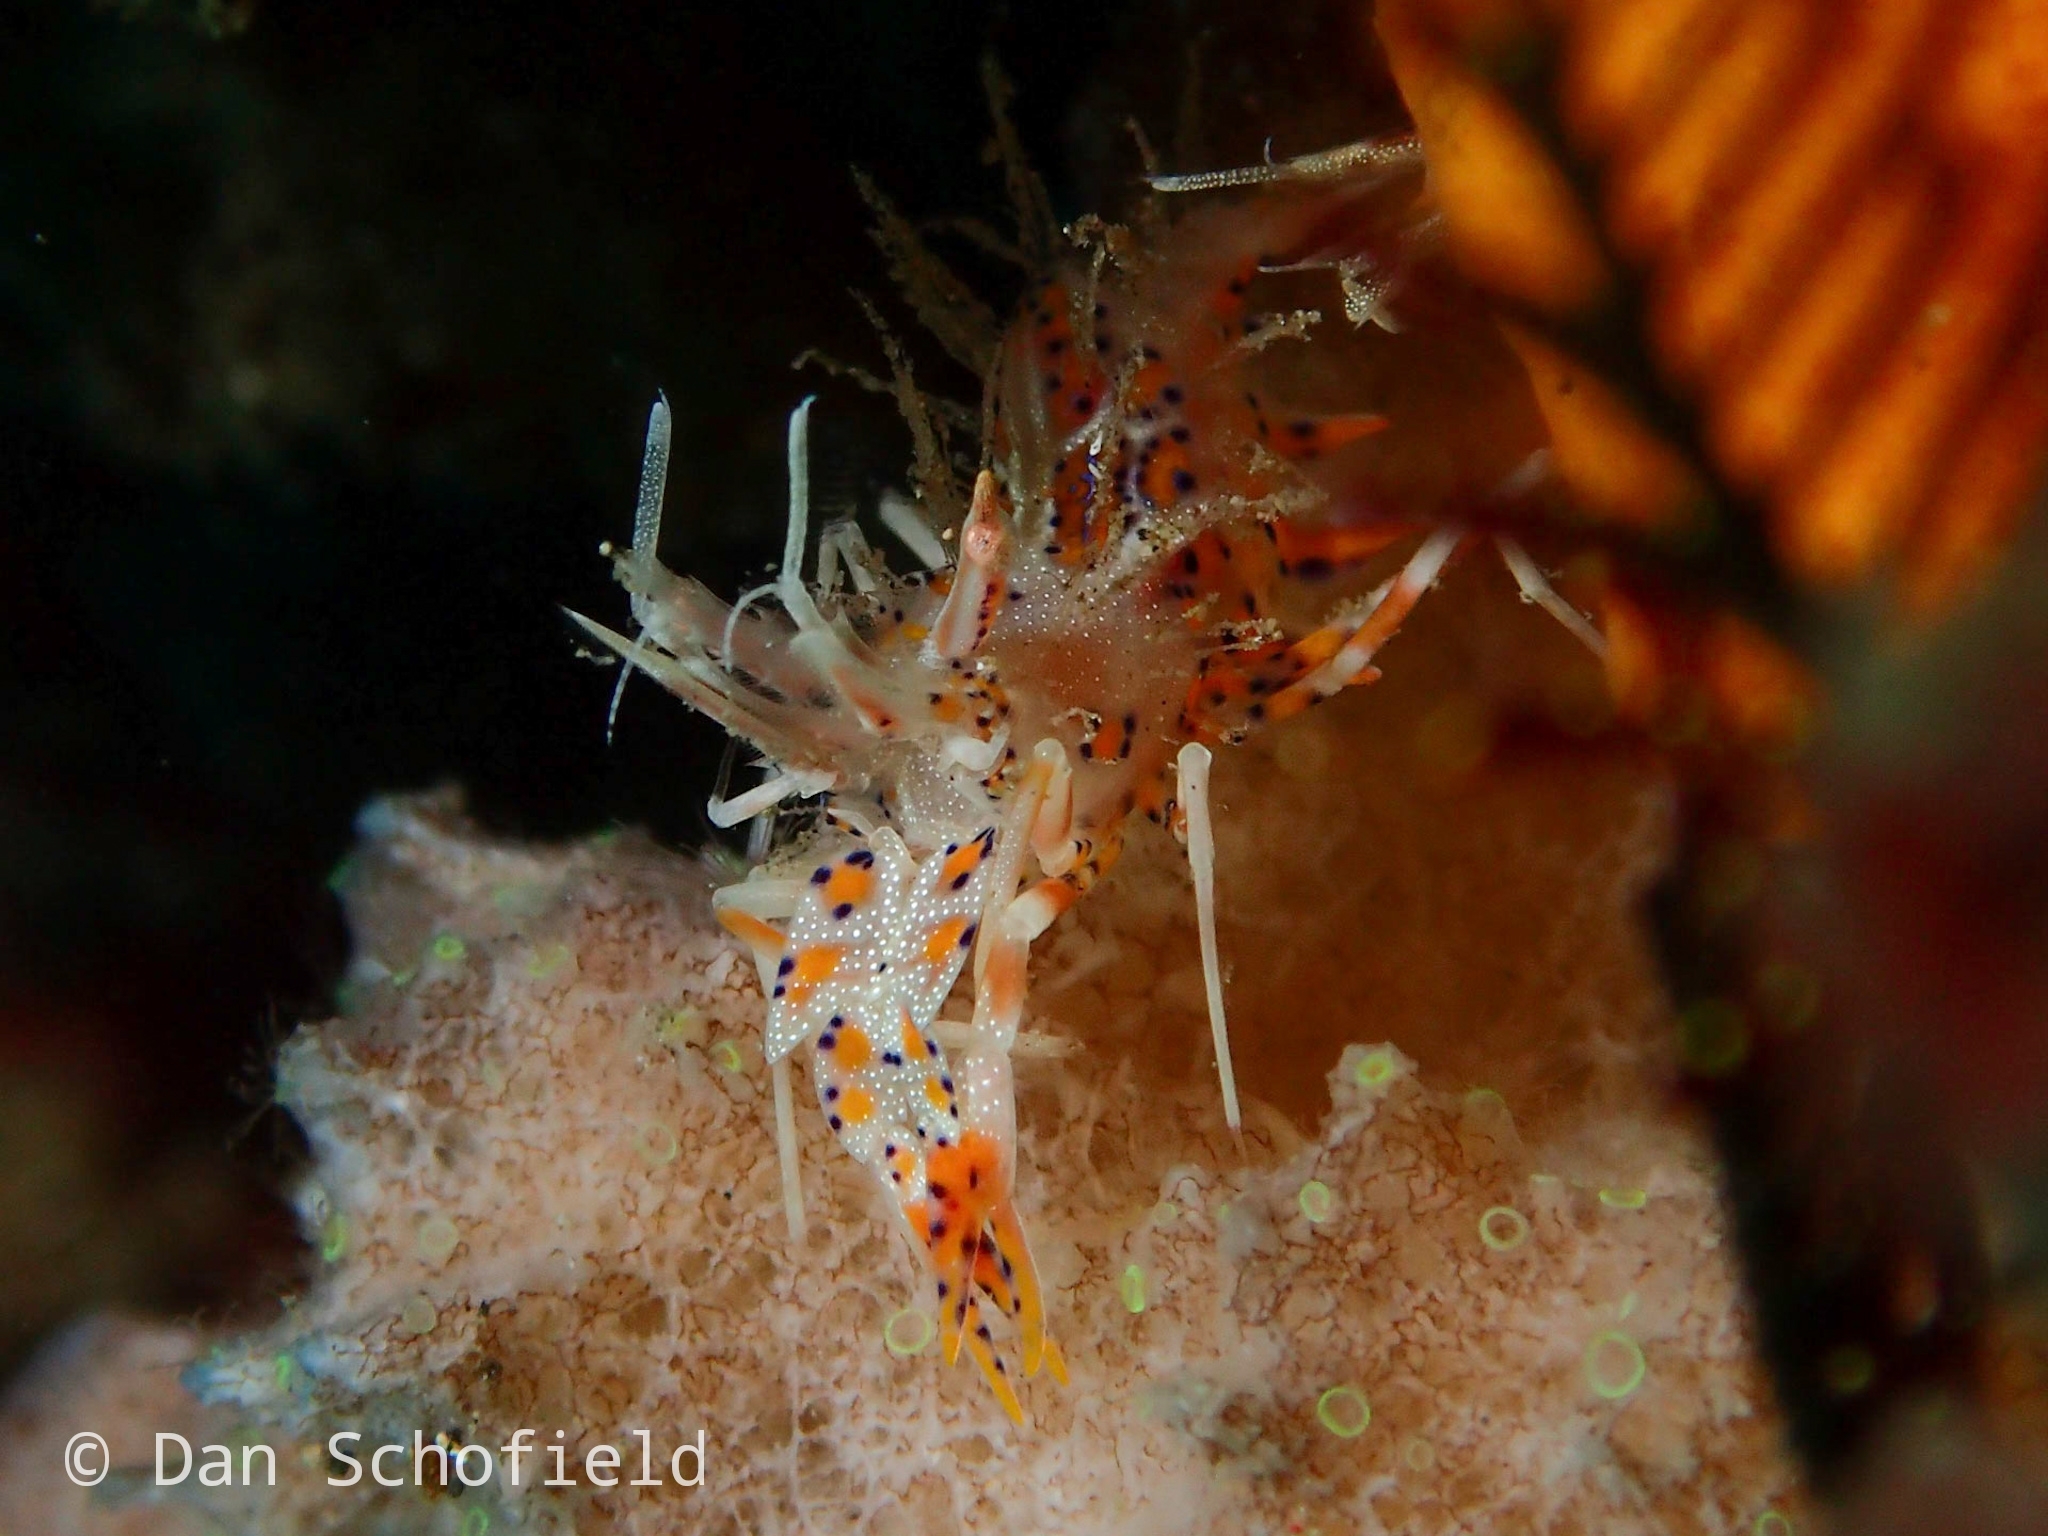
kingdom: Animalia
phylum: Arthropoda
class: Malacostraca
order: Decapoda
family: Palaemonidae
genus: Phyllognathia
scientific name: Phyllognathia ceratophthalma
